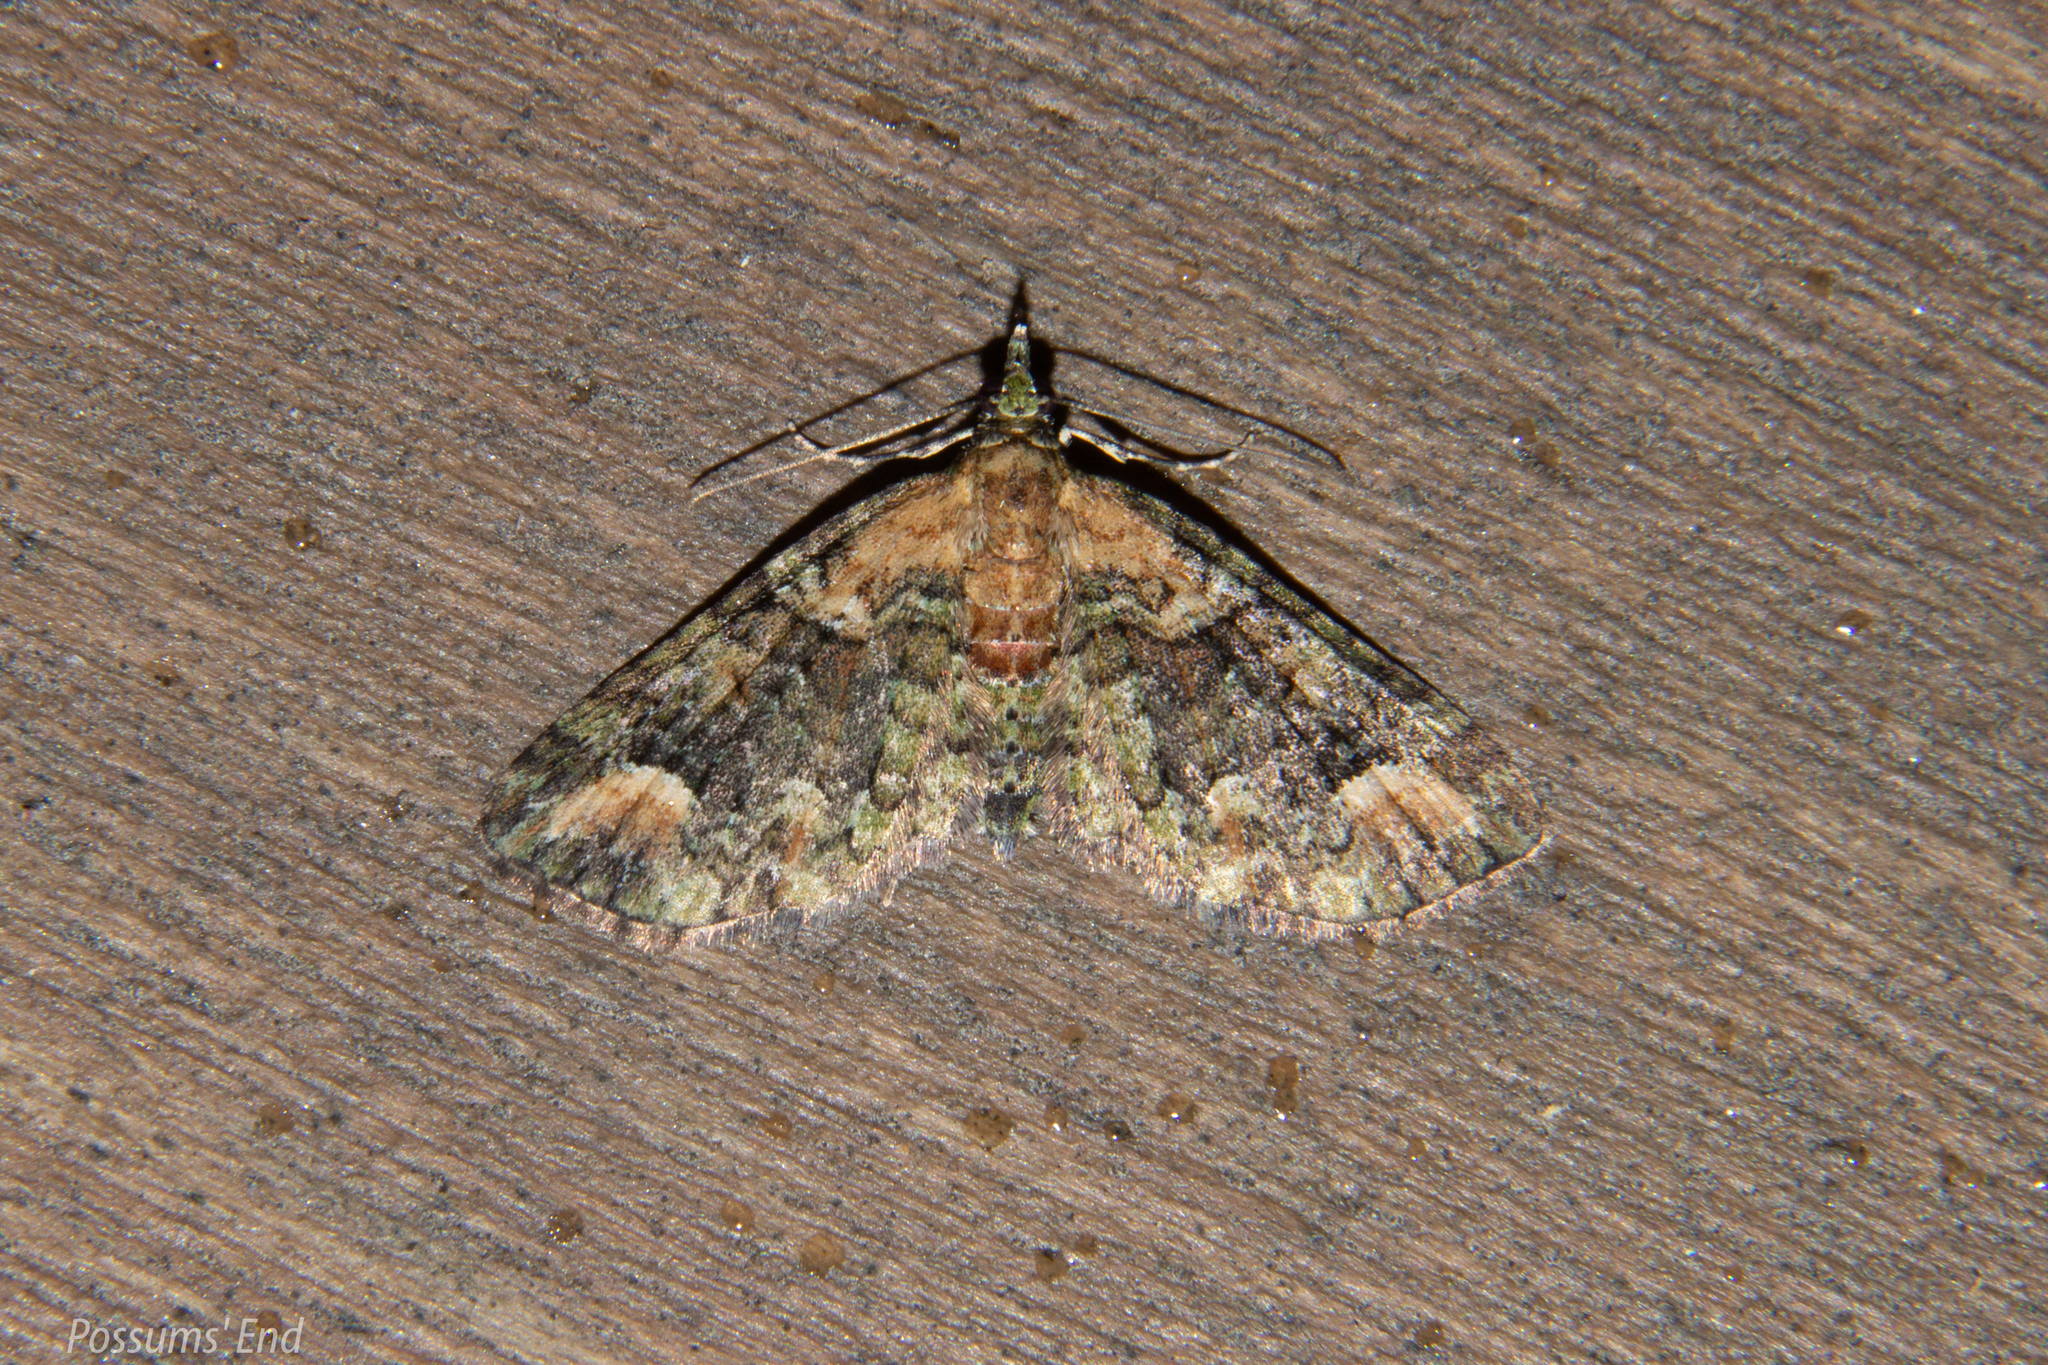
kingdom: Animalia
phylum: Arthropoda
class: Insecta
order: Lepidoptera
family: Geometridae
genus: Idaea
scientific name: Idaea mutanda
